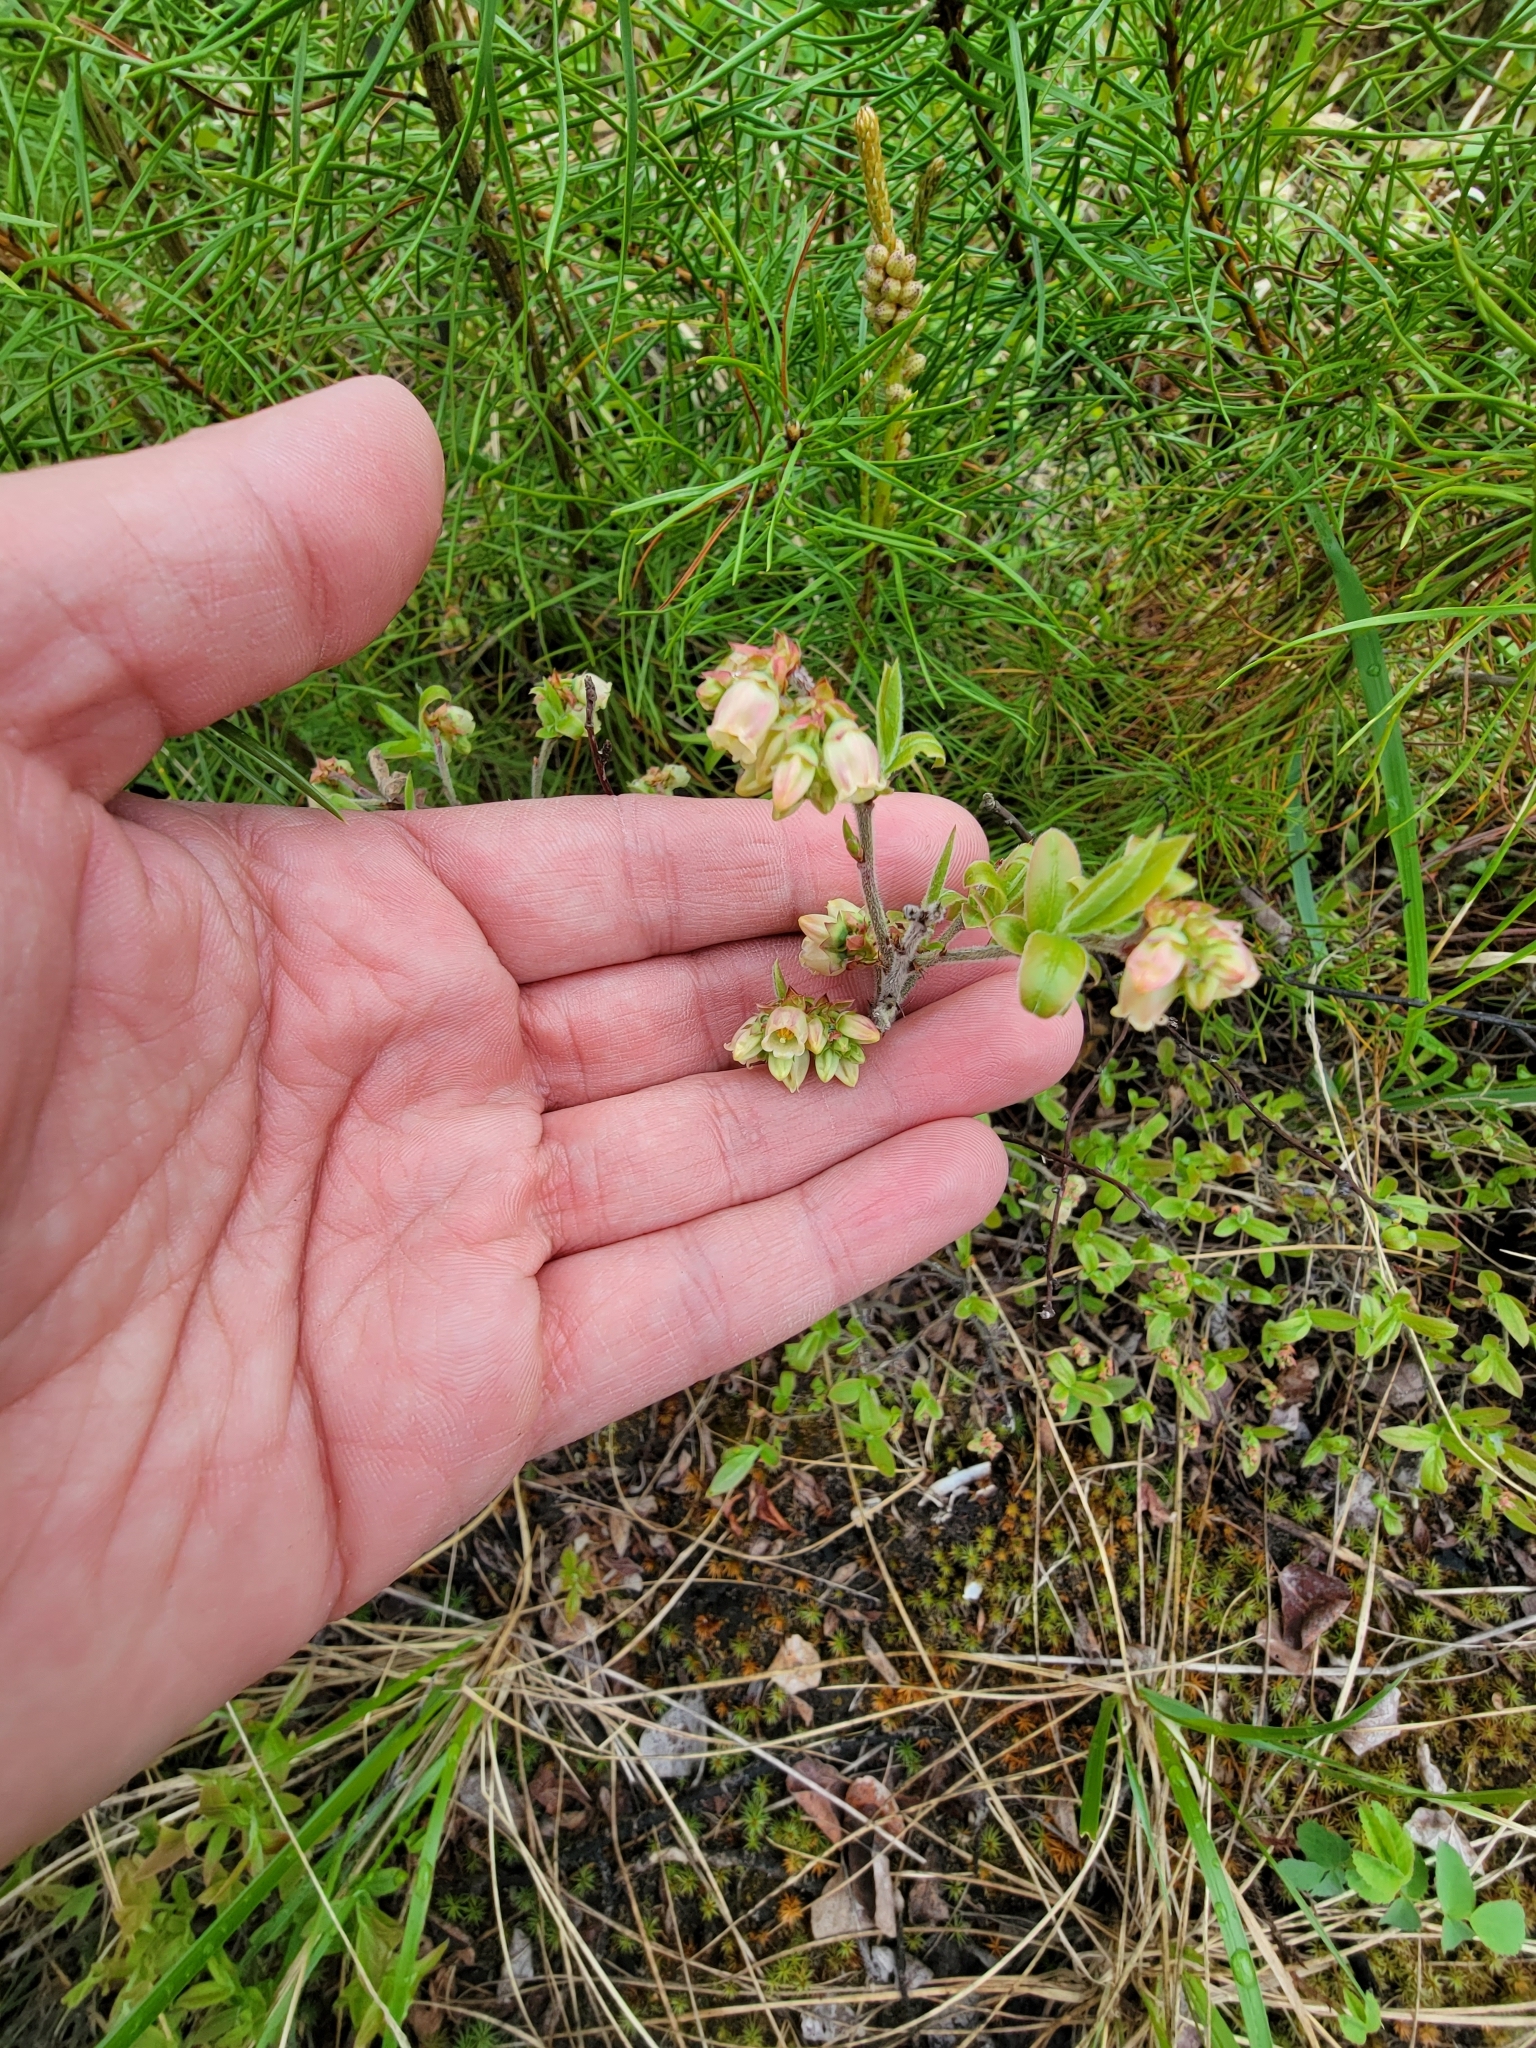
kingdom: Plantae
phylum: Tracheophyta
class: Magnoliopsida
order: Ericales
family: Ericaceae
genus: Vaccinium
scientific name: Vaccinium myrtilloides
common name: Canada blueberry
